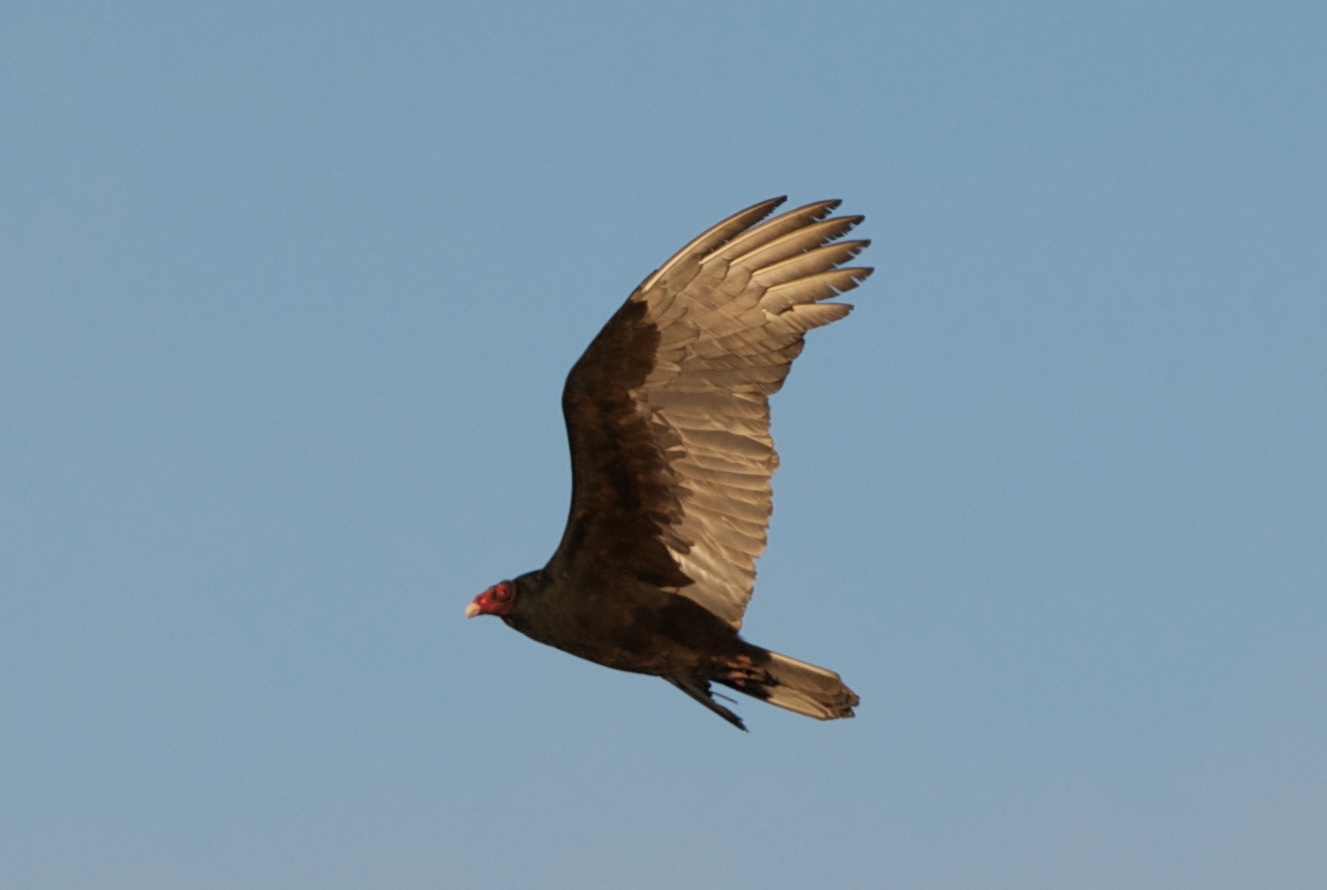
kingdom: Animalia
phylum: Chordata
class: Aves
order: Accipitriformes
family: Cathartidae
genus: Cathartes
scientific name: Cathartes aura
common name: Turkey vulture
